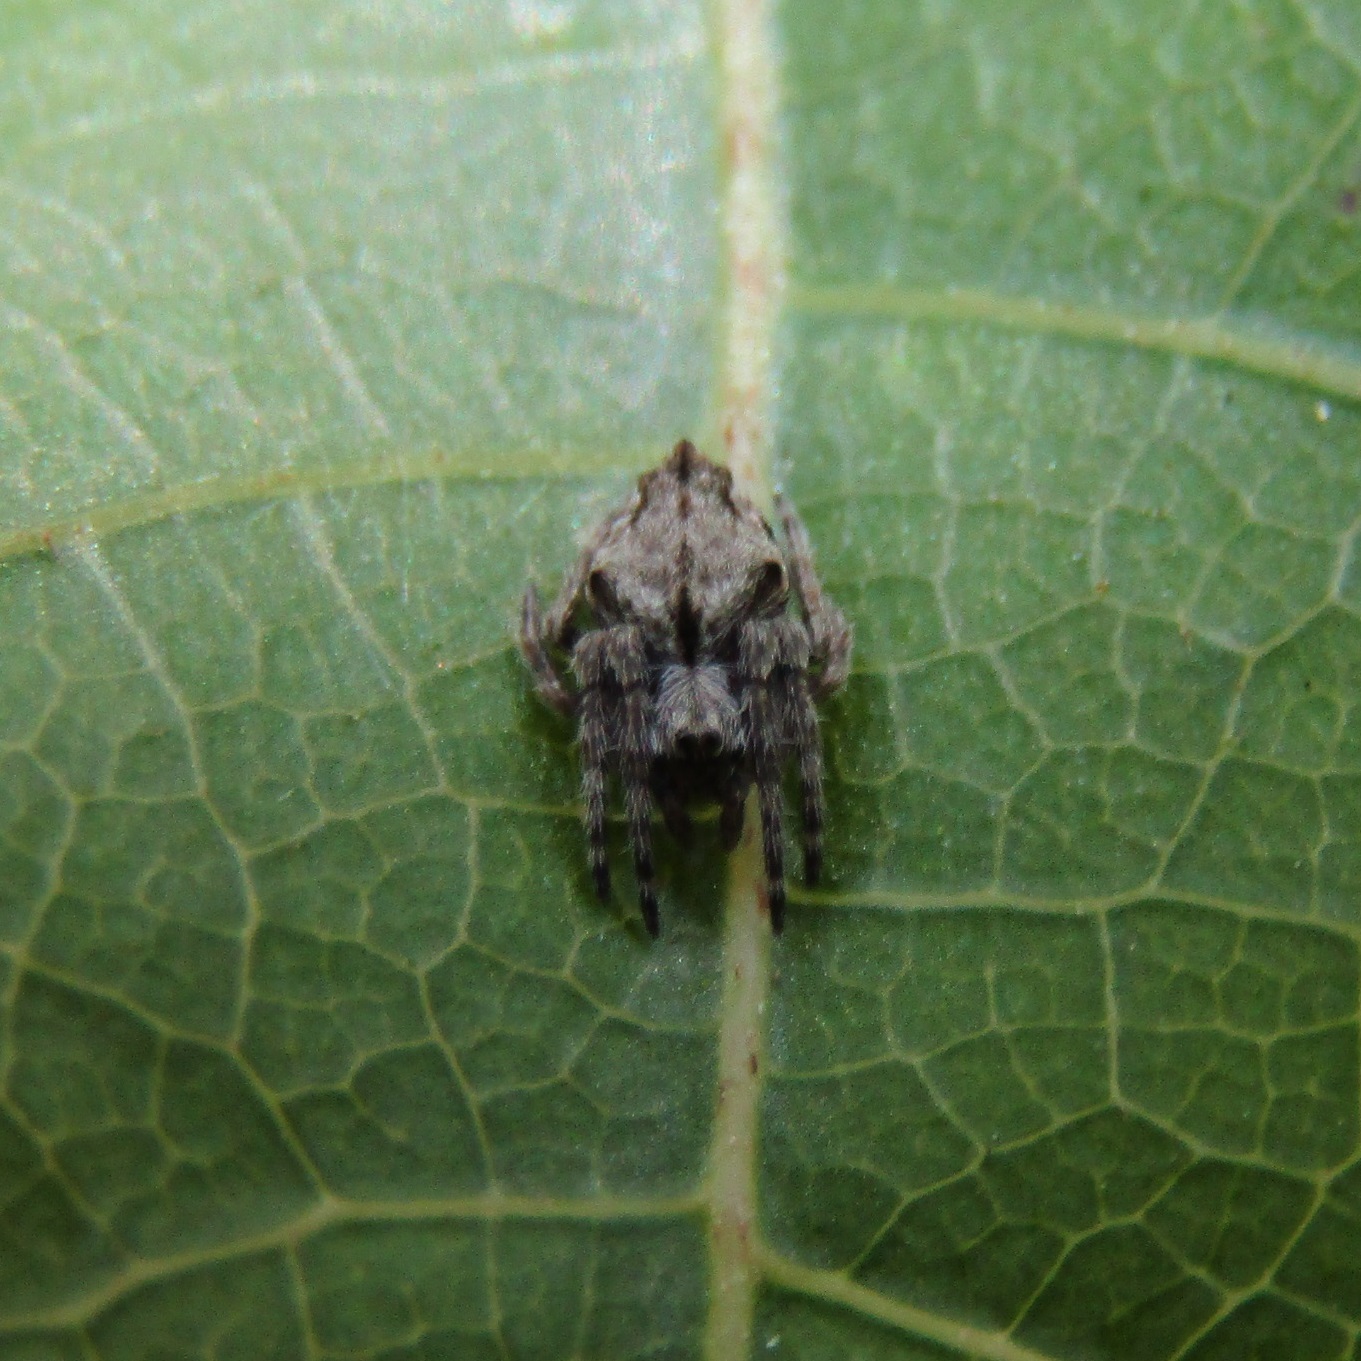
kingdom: Animalia
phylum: Arthropoda
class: Arachnida
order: Araneae
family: Araneidae
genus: Eriophora
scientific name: Eriophora pustulosa
